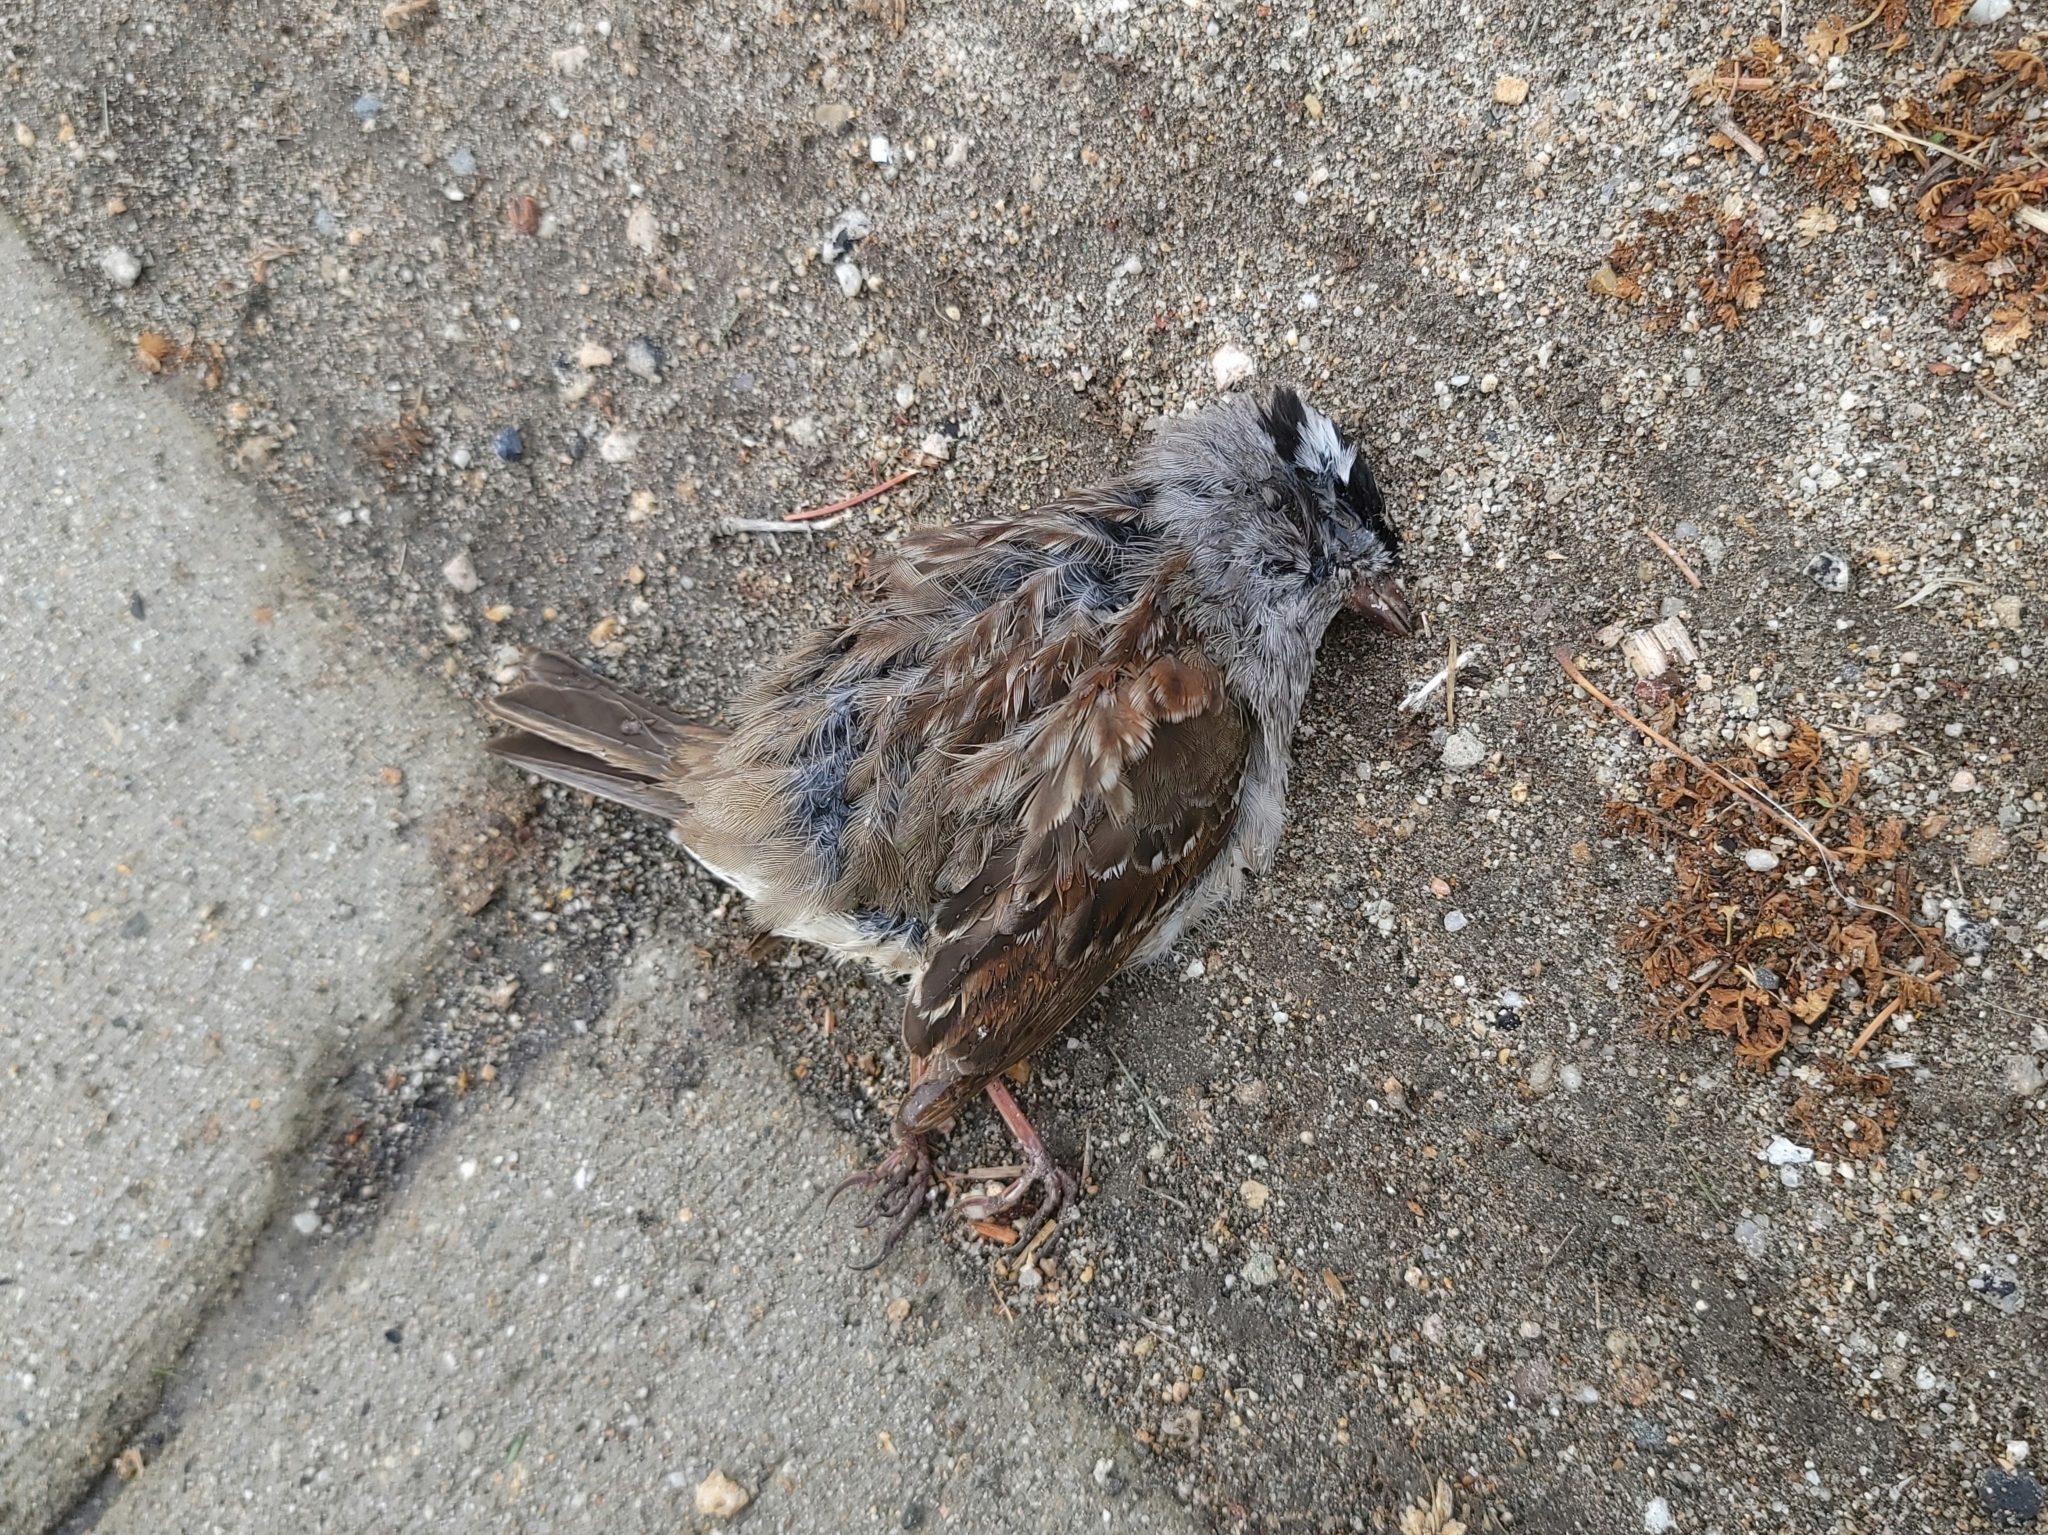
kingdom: Animalia
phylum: Chordata
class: Aves
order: Passeriformes
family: Passerellidae
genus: Zonotrichia
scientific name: Zonotrichia leucophrys
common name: White-crowned sparrow
